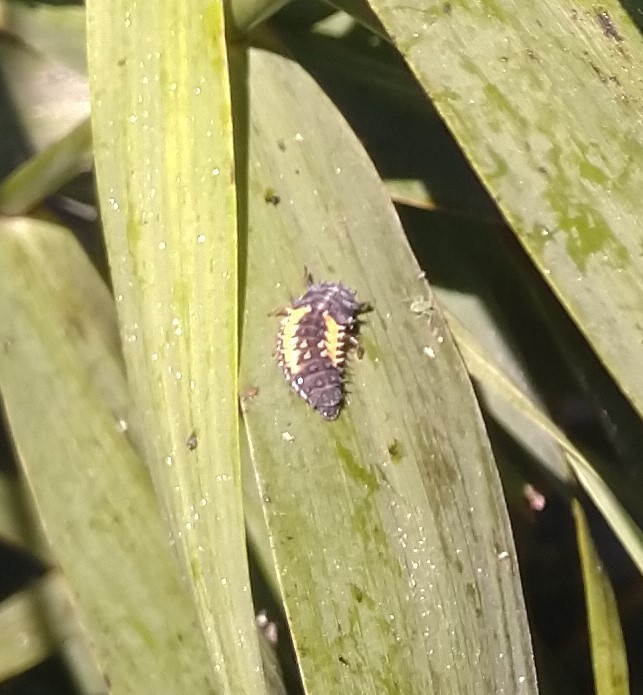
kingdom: Animalia
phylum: Arthropoda
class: Insecta
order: Coleoptera
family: Coccinellidae
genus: Harmonia
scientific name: Harmonia axyridis
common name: Harlequin ladybird
